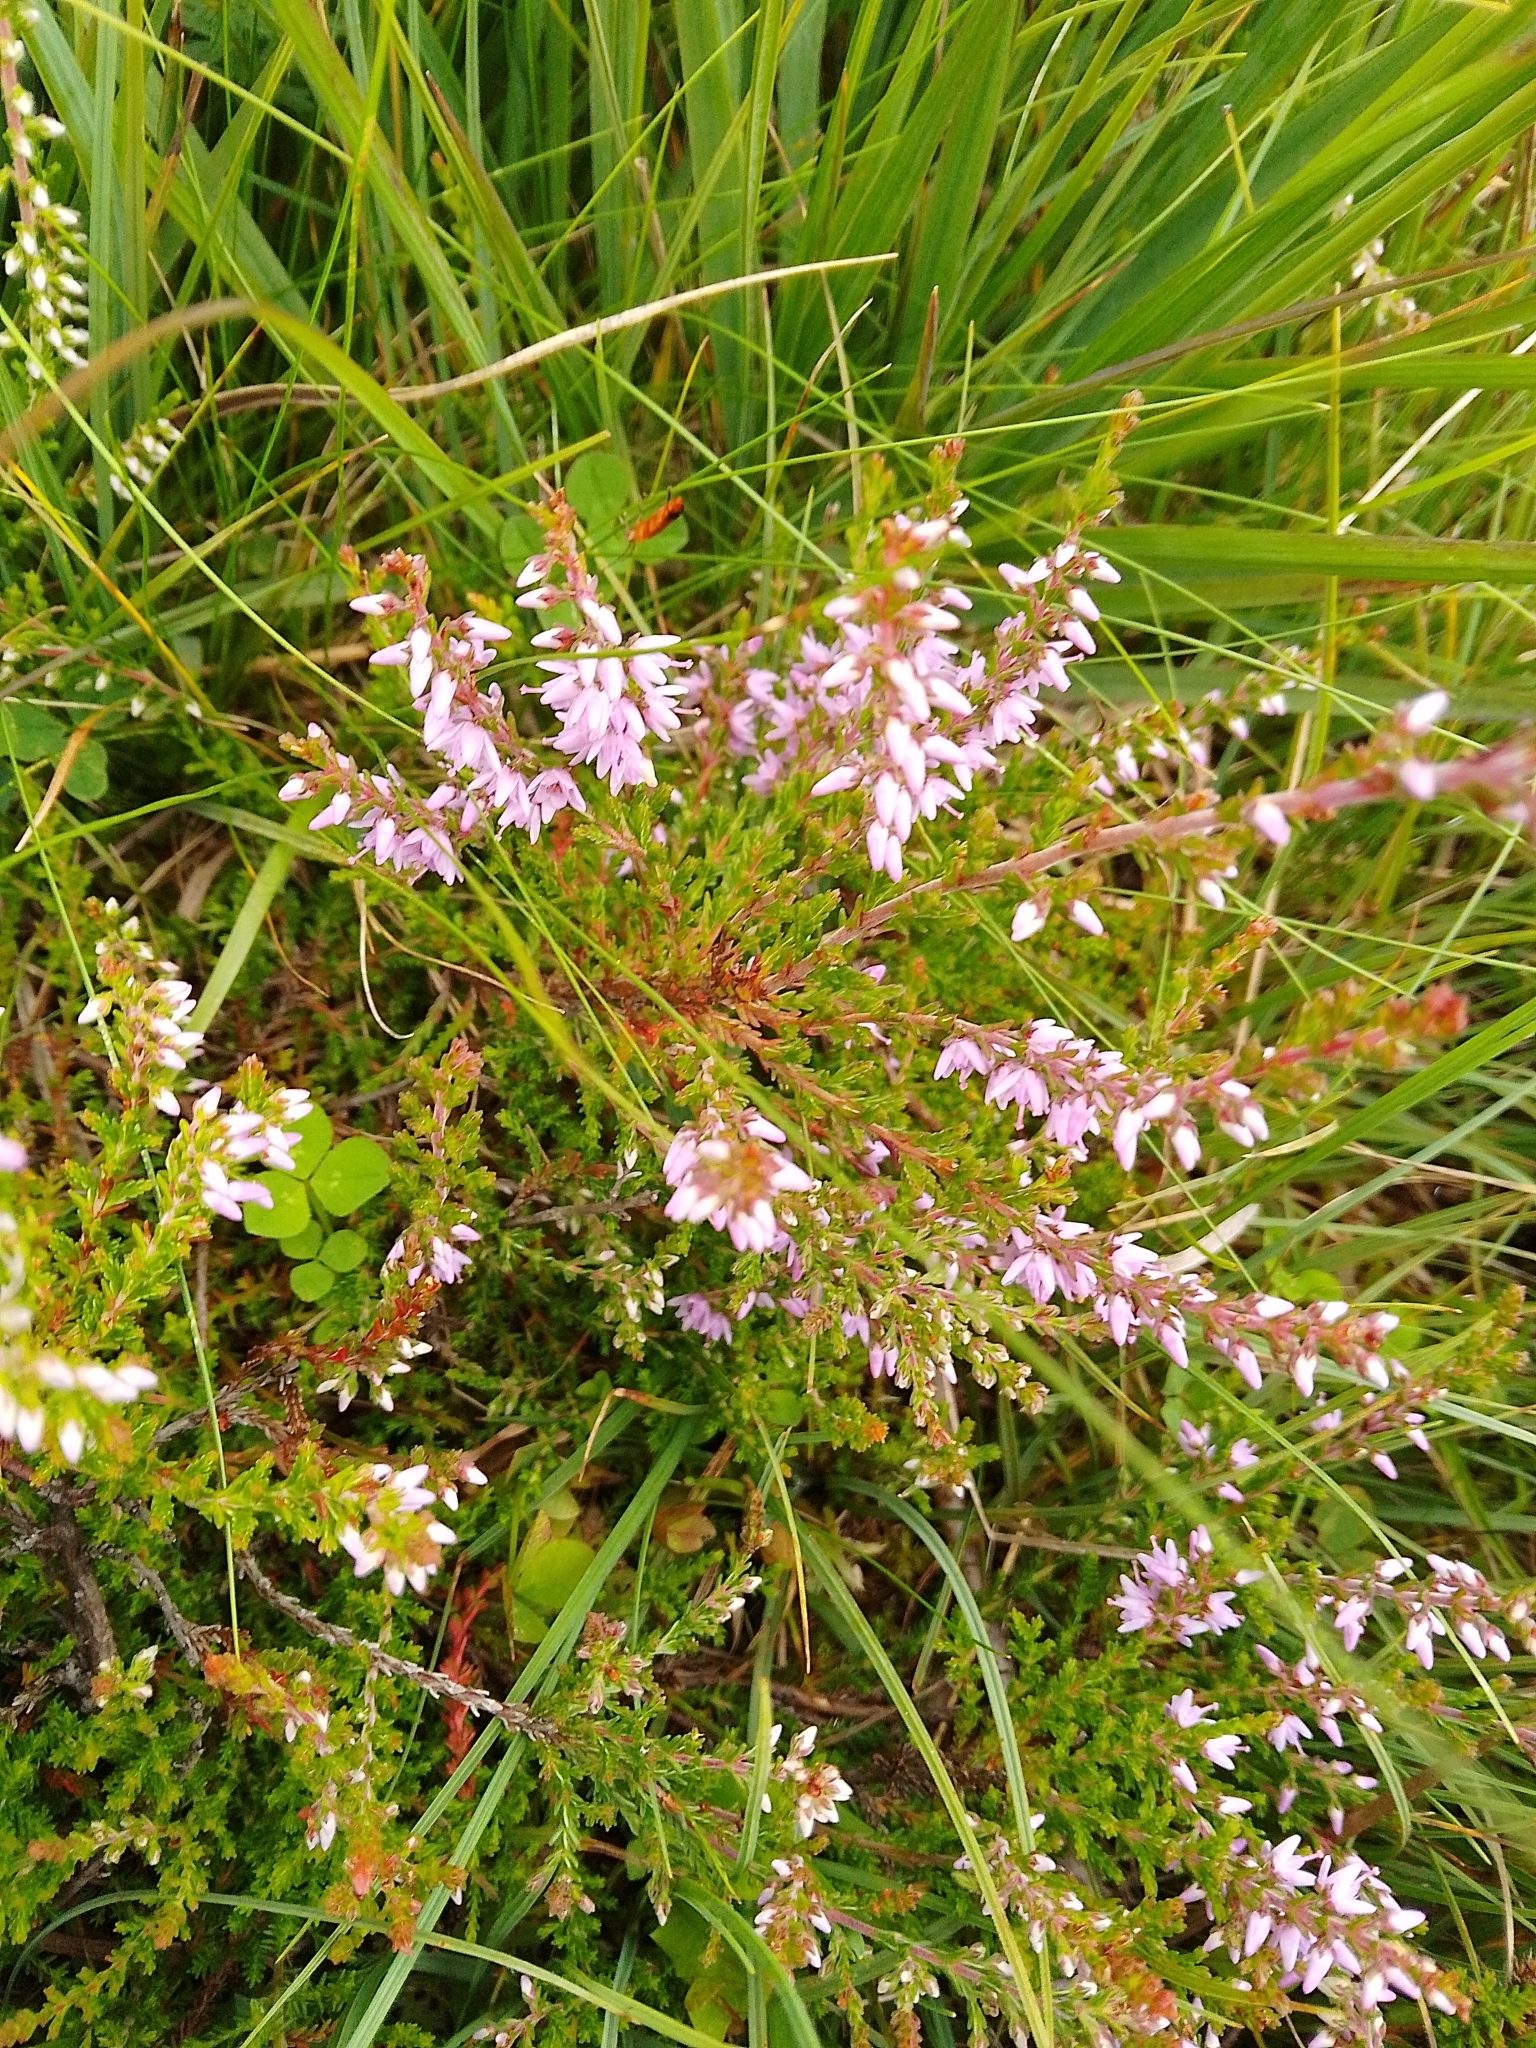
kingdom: Plantae
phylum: Tracheophyta
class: Magnoliopsida
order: Ericales
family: Ericaceae
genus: Calluna
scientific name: Calluna vulgaris
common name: Heather
